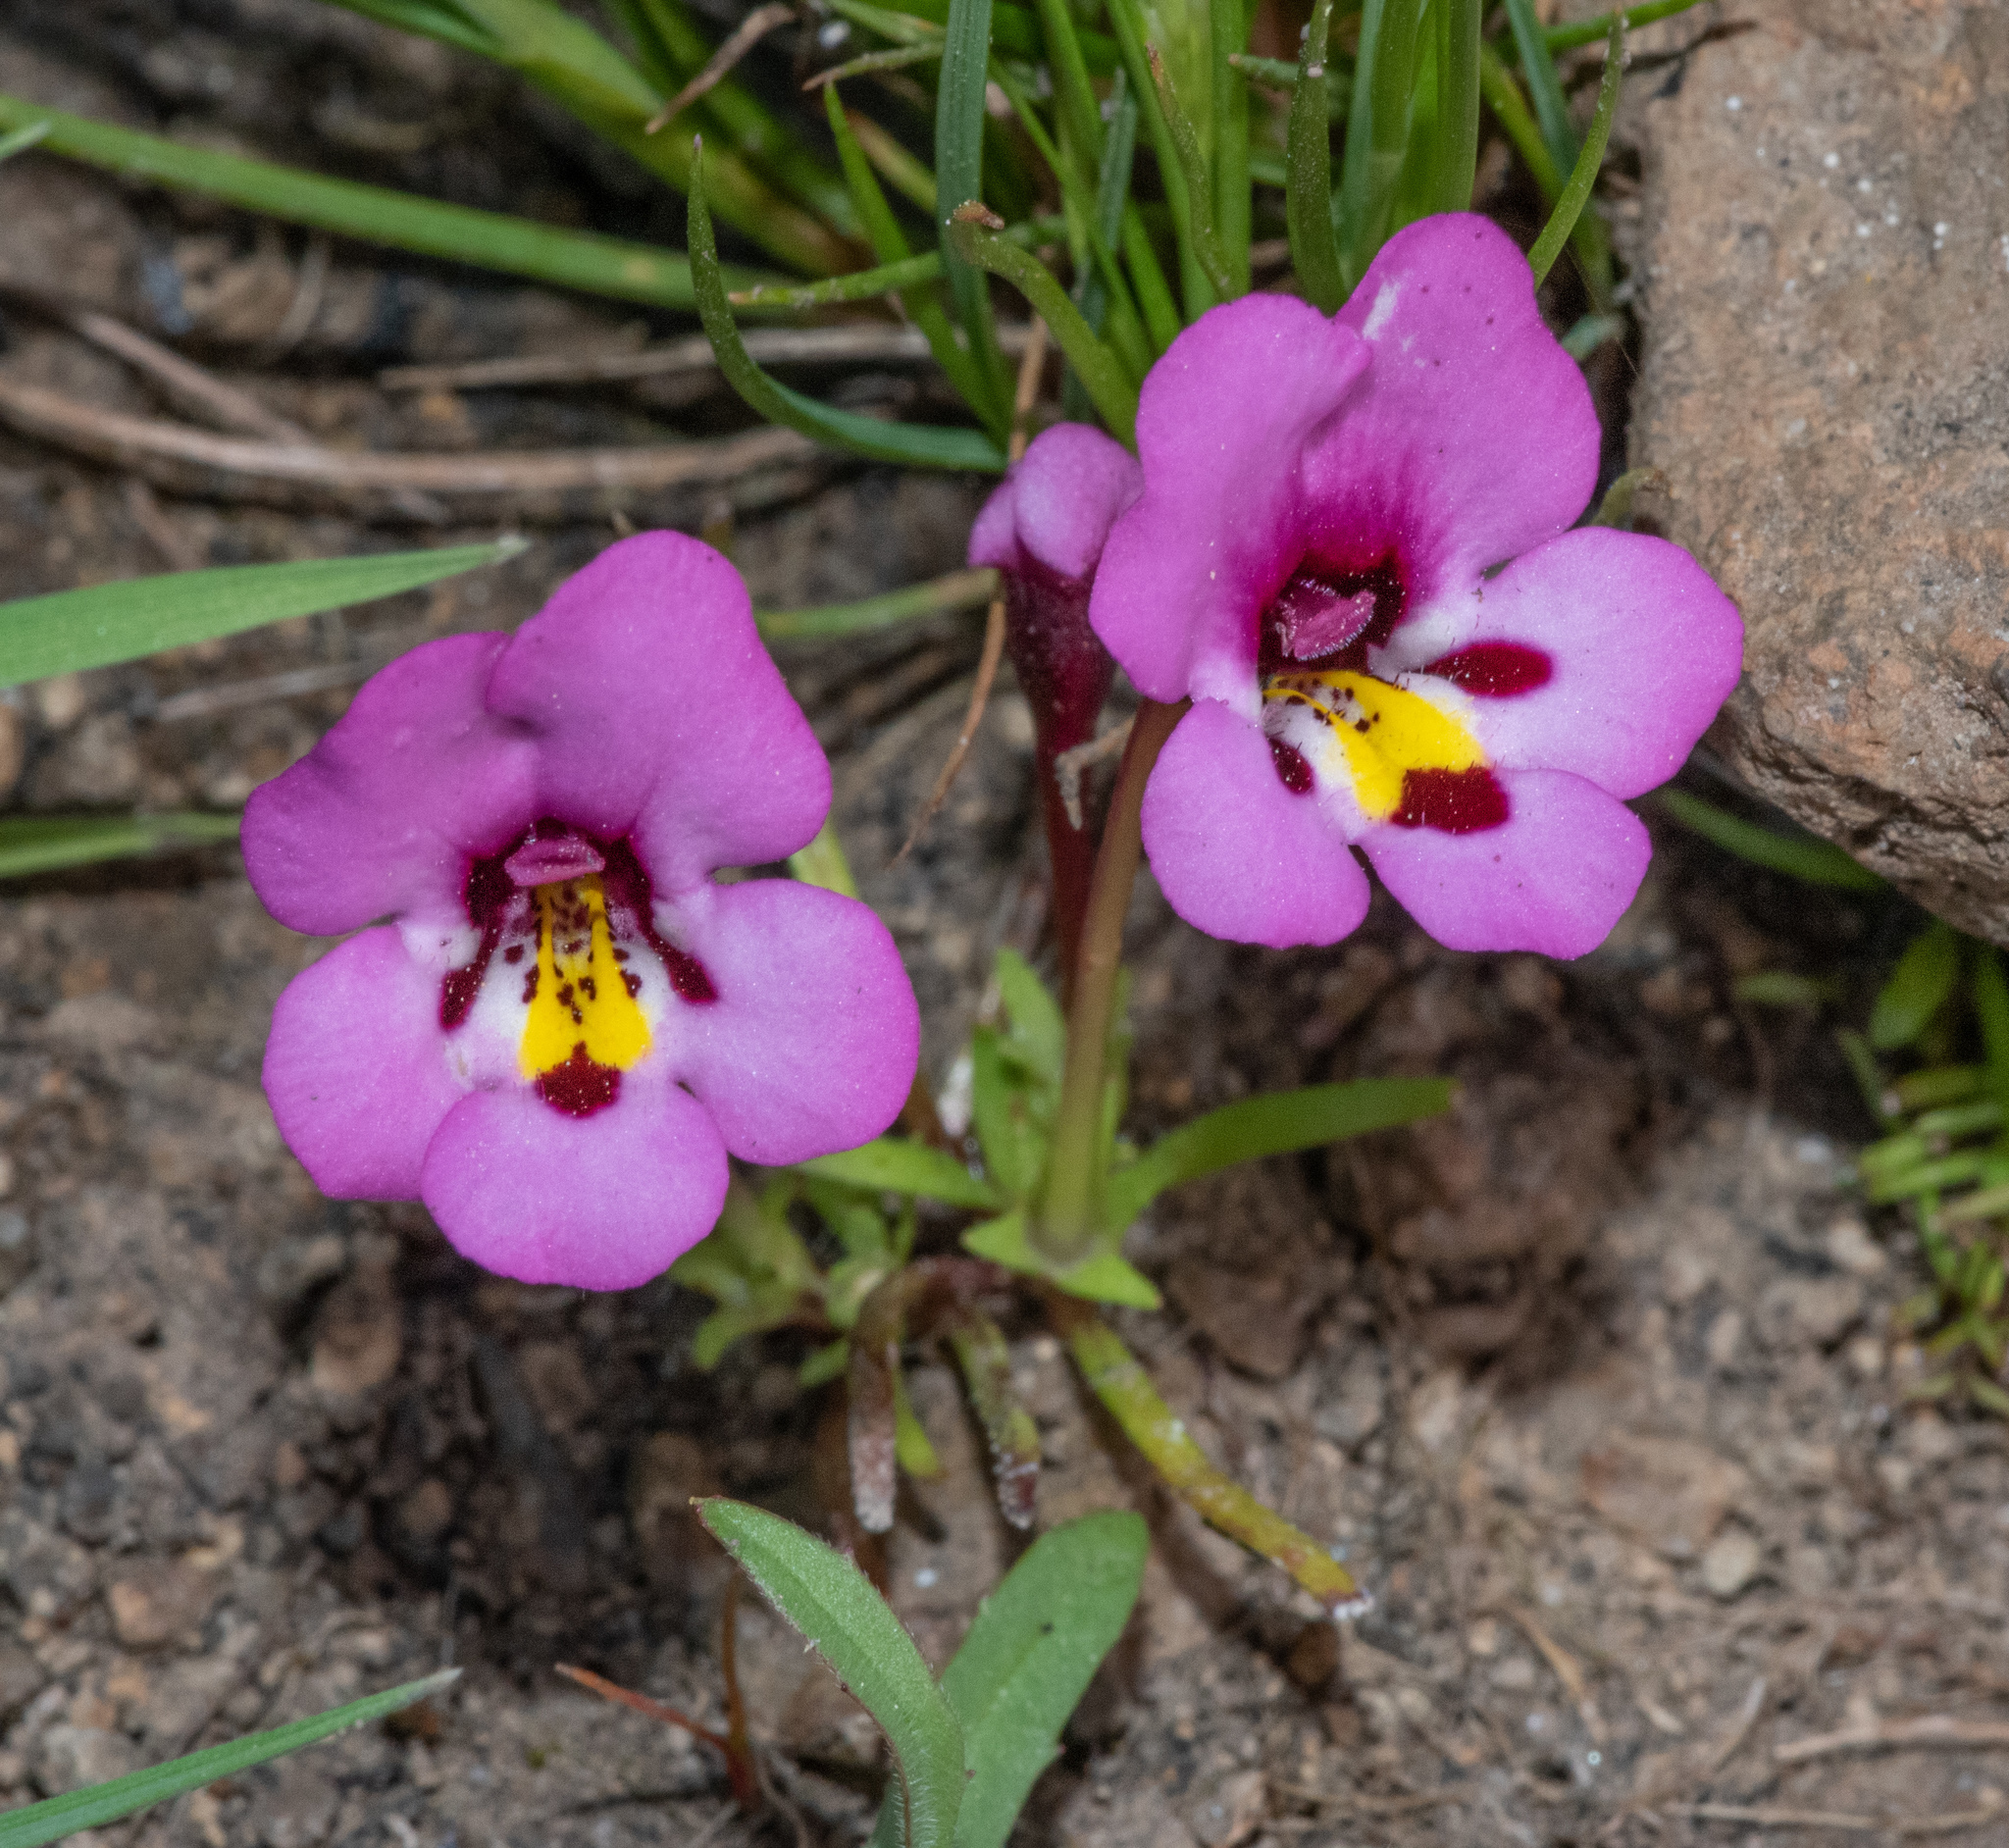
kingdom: Plantae
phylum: Tracheophyta
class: Magnoliopsida
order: Lamiales
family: Phrymaceae
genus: Diplacus
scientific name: Diplacus angustatus
